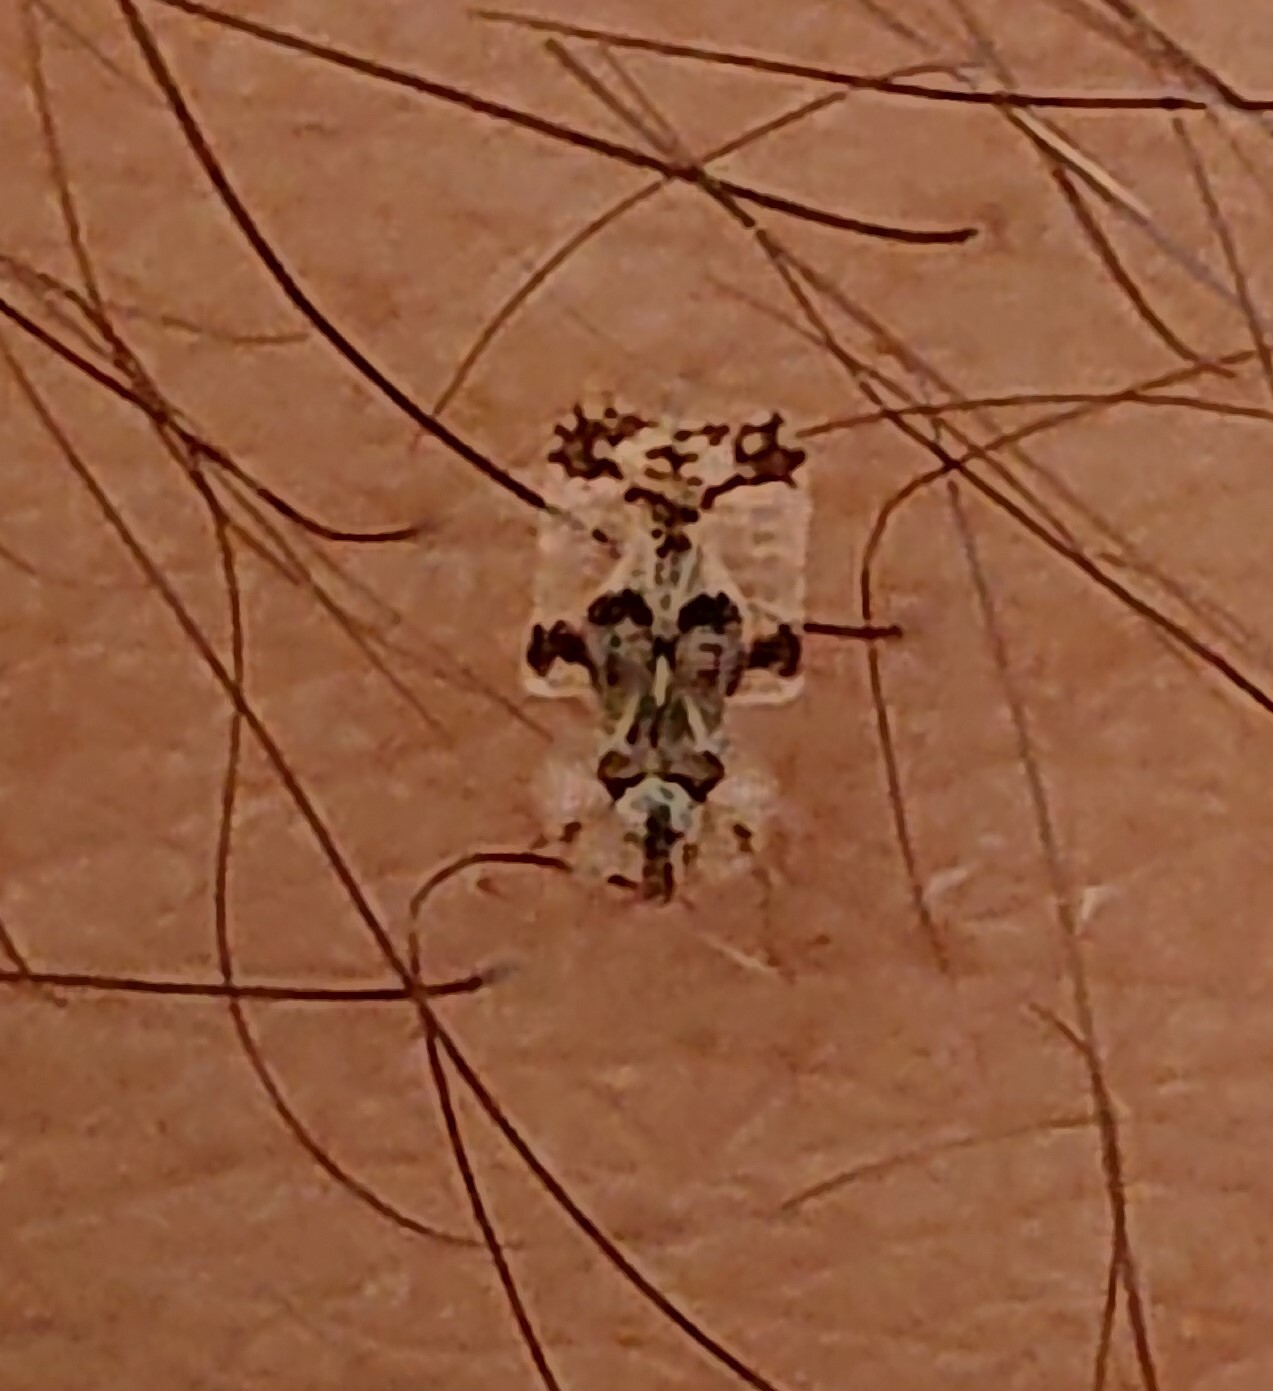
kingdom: Animalia
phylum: Arthropoda
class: Insecta
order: Hemiptera
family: Tingidae
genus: Corythucha
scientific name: Corythucha arcuata
